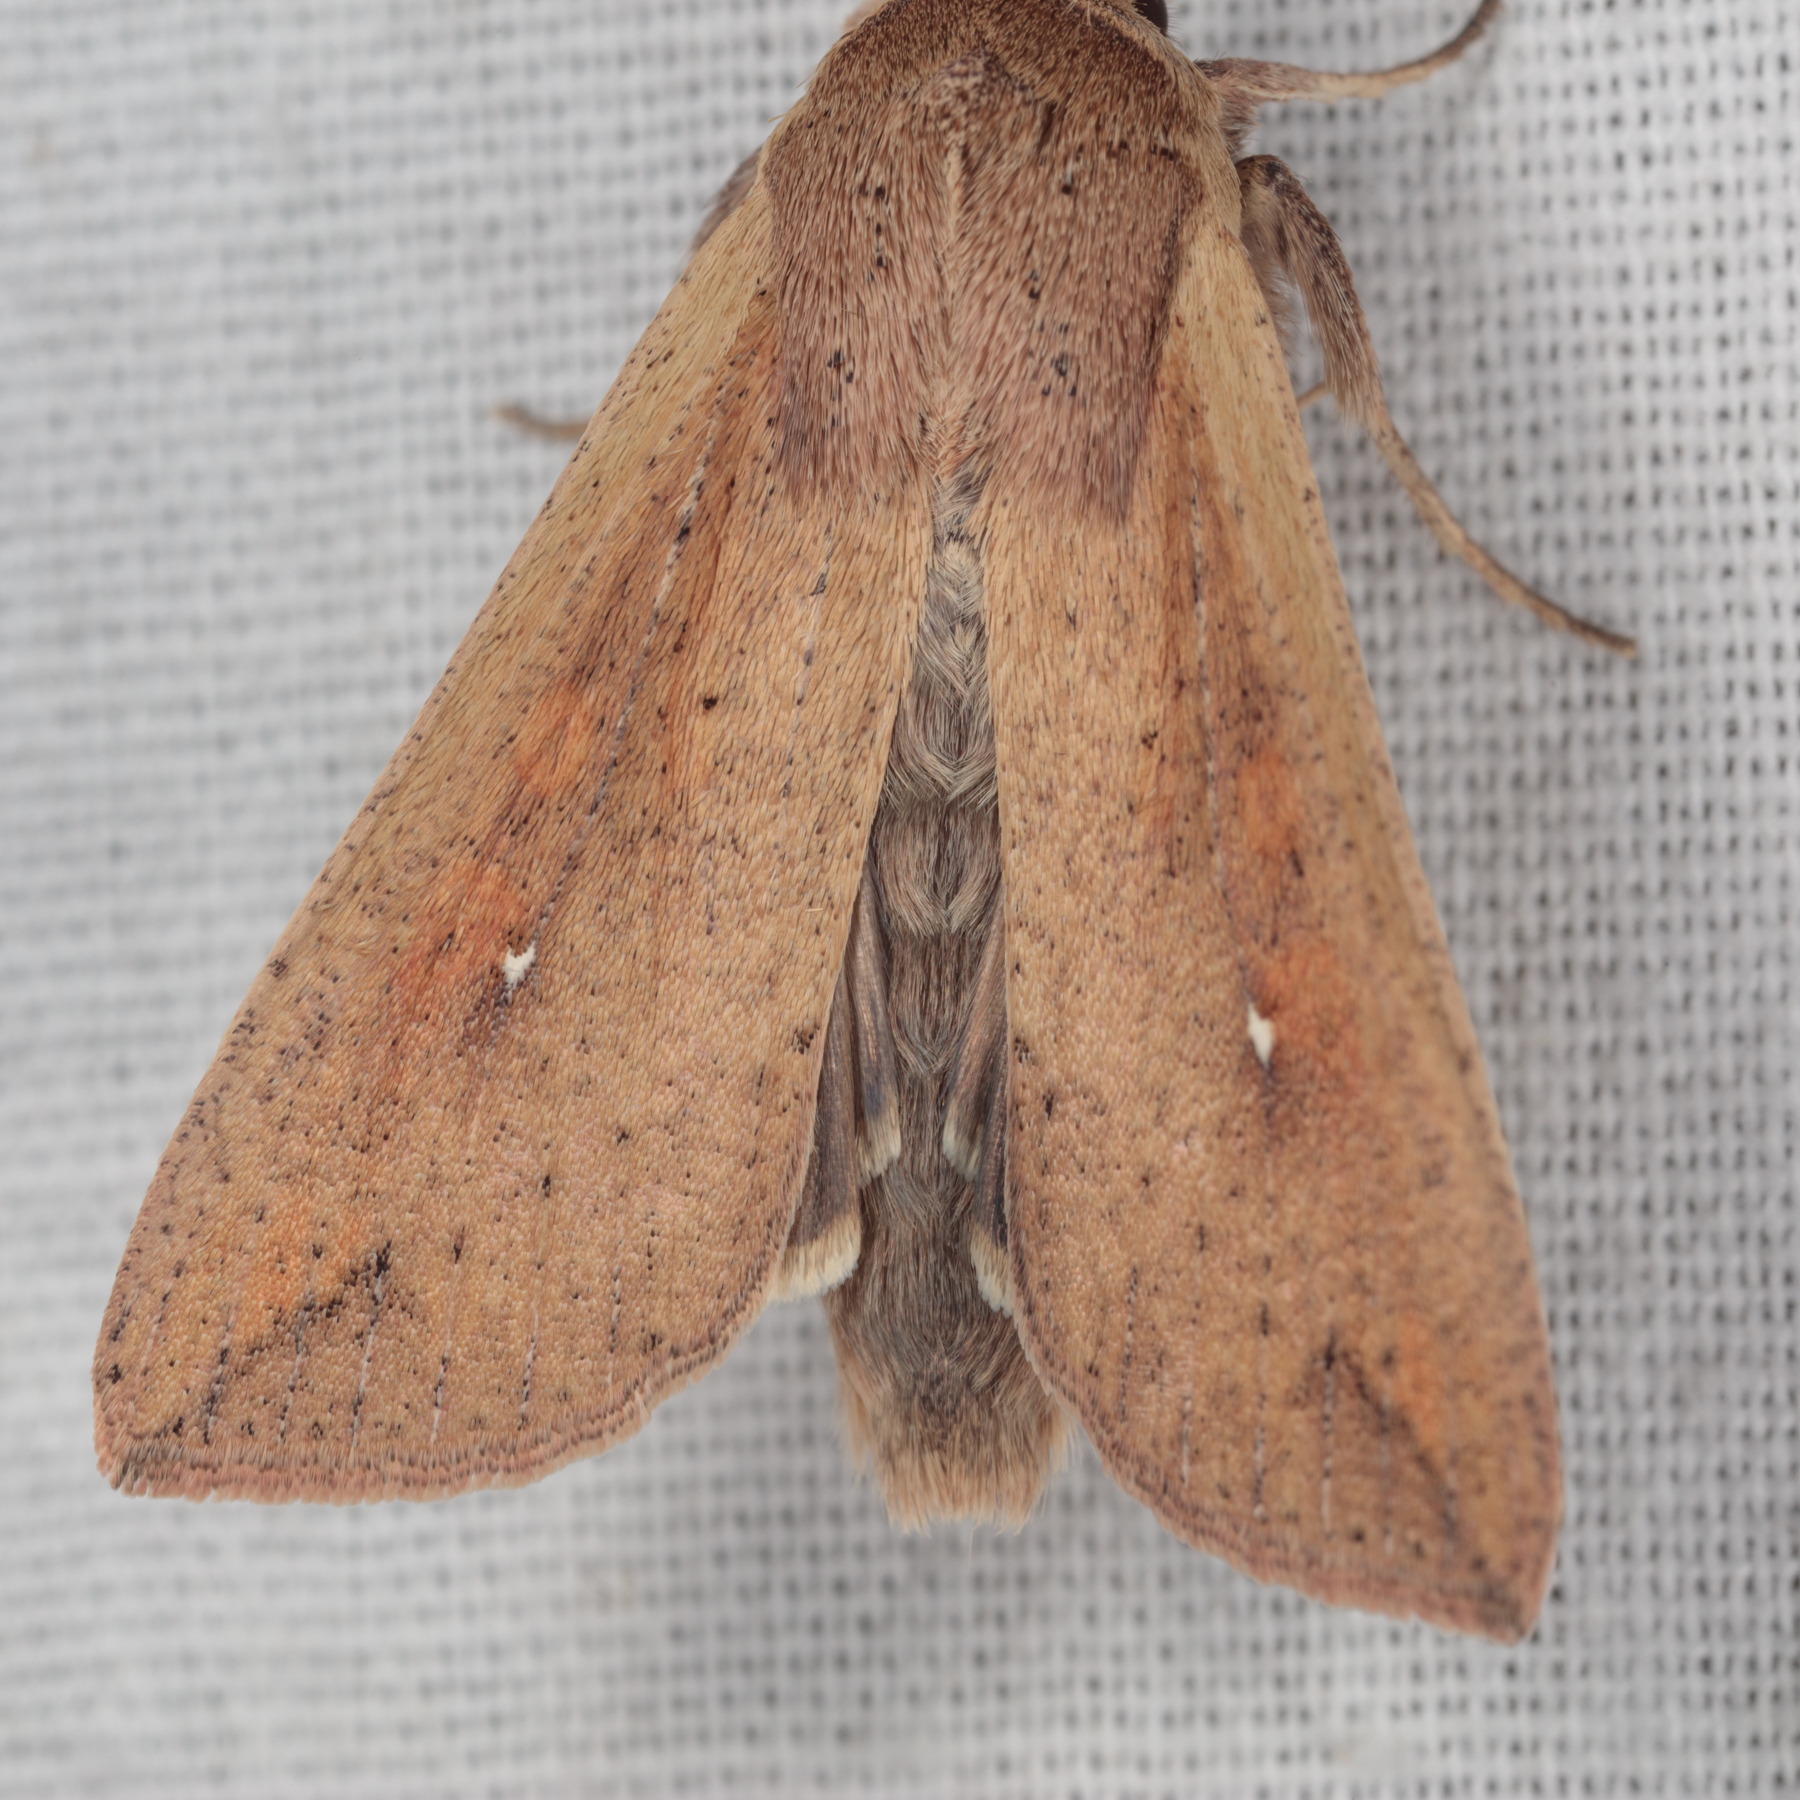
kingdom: Animalia
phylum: Arthropoda
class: Insecta
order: Lepidoptera
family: Noctuidae
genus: Mythimna
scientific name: Mythimna unipuncta
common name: White-speck
